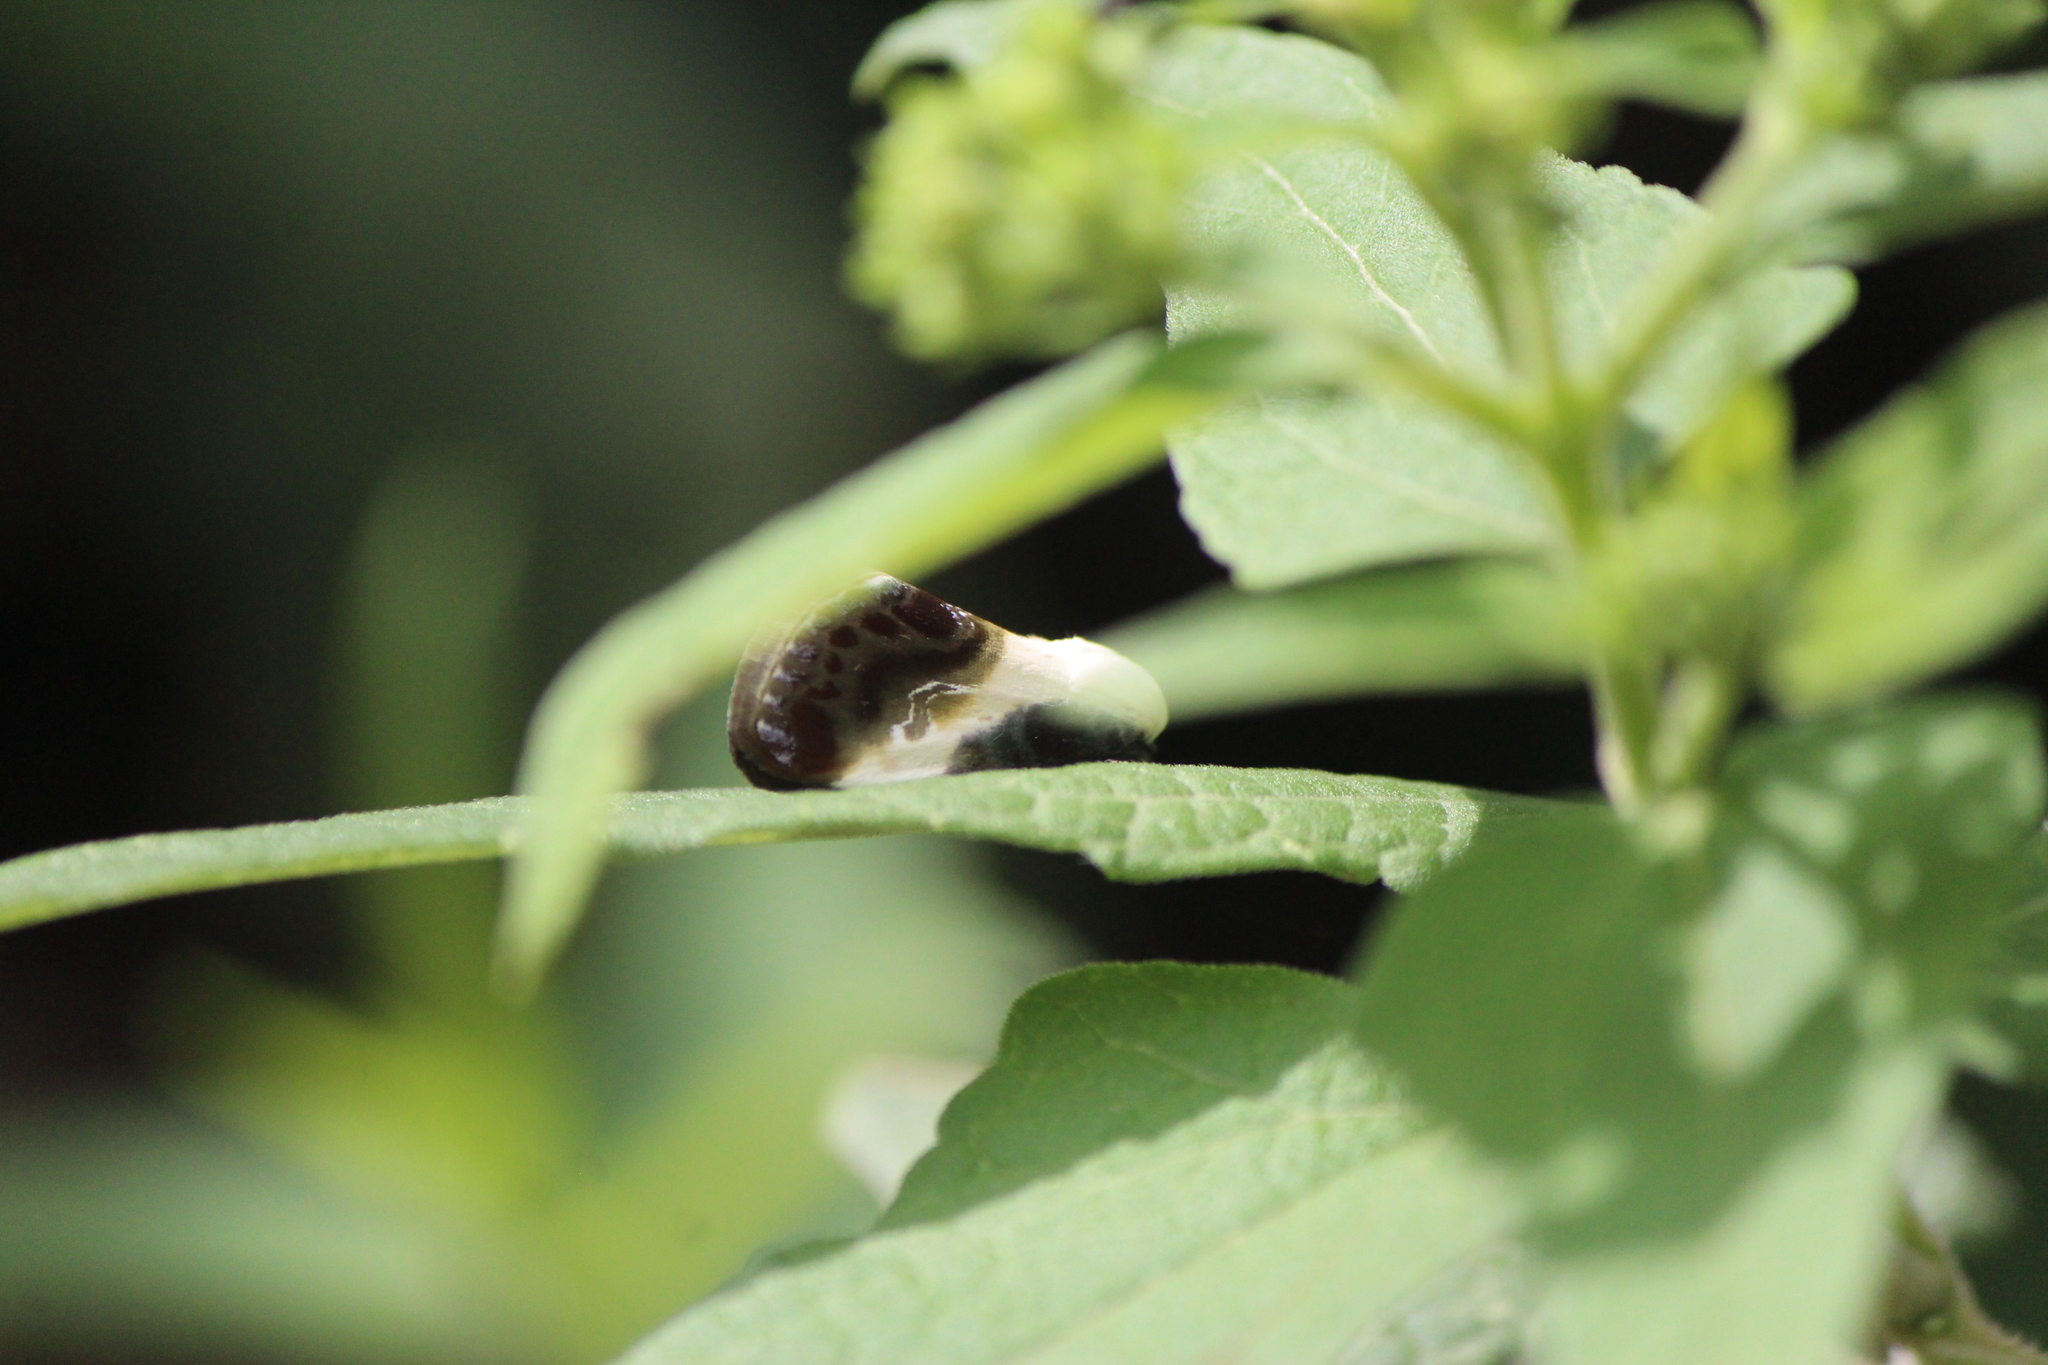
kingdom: Animalia
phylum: Arthropoda
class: Insecta
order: Lepidoptera
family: Noctuidae
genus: Acontia
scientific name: Acontia jaliscana
